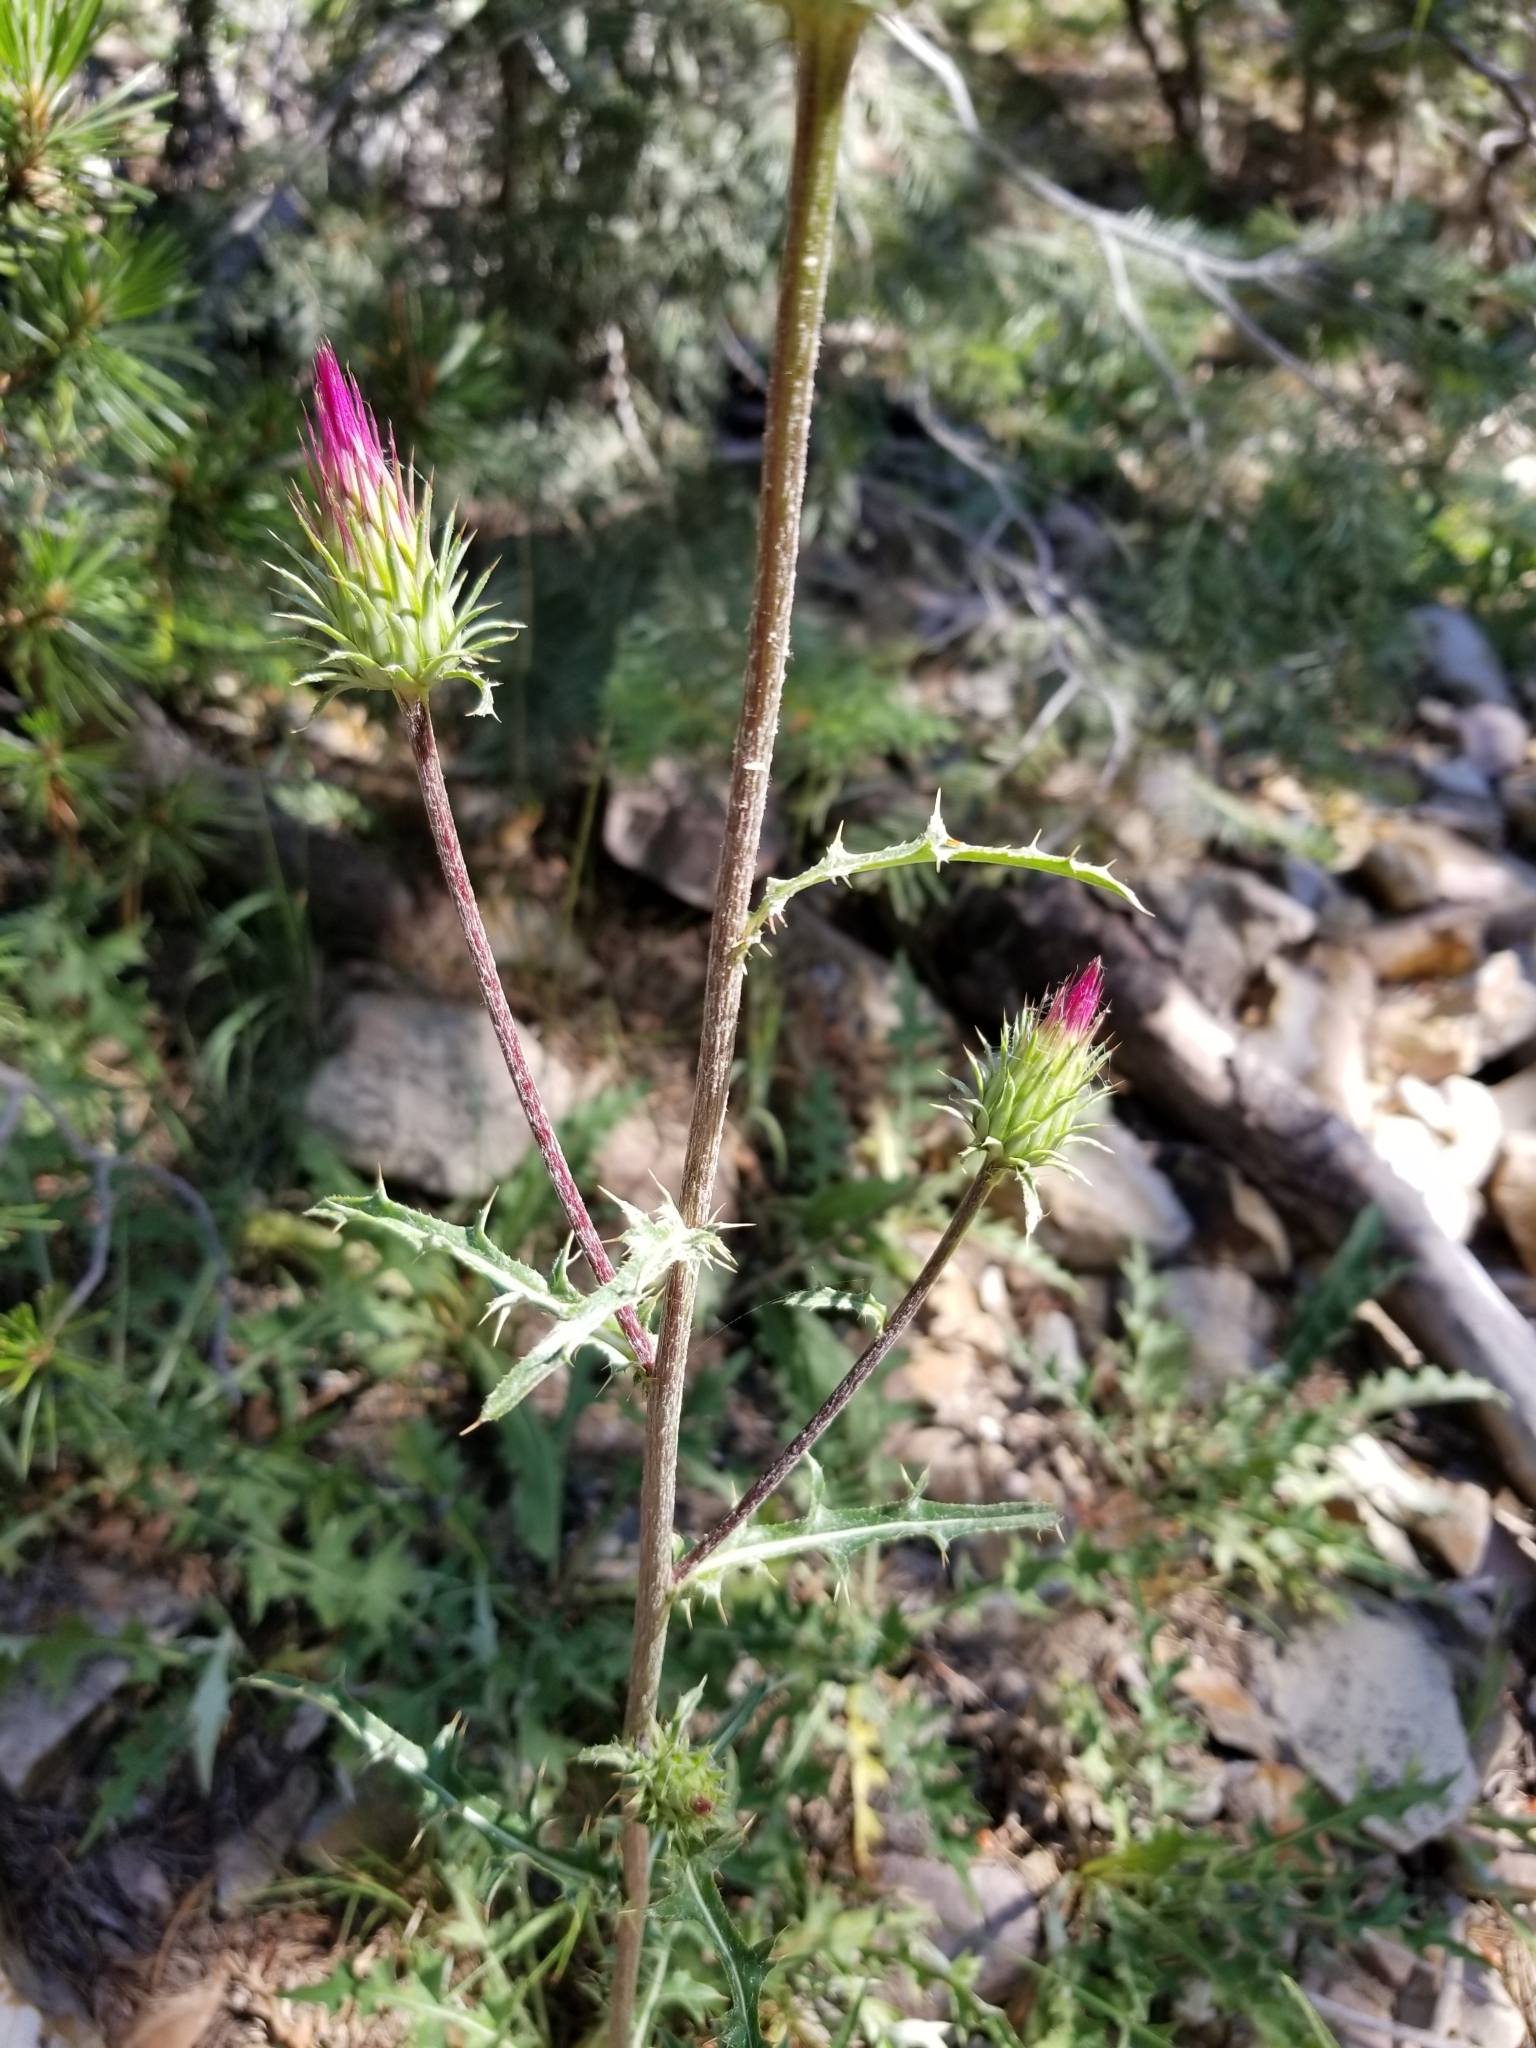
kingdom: Plantae
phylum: Tracheophyta
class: Magnoliopsida
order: Asterales
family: Asteraceae
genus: Cirsium
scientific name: Cirsium andersonii
